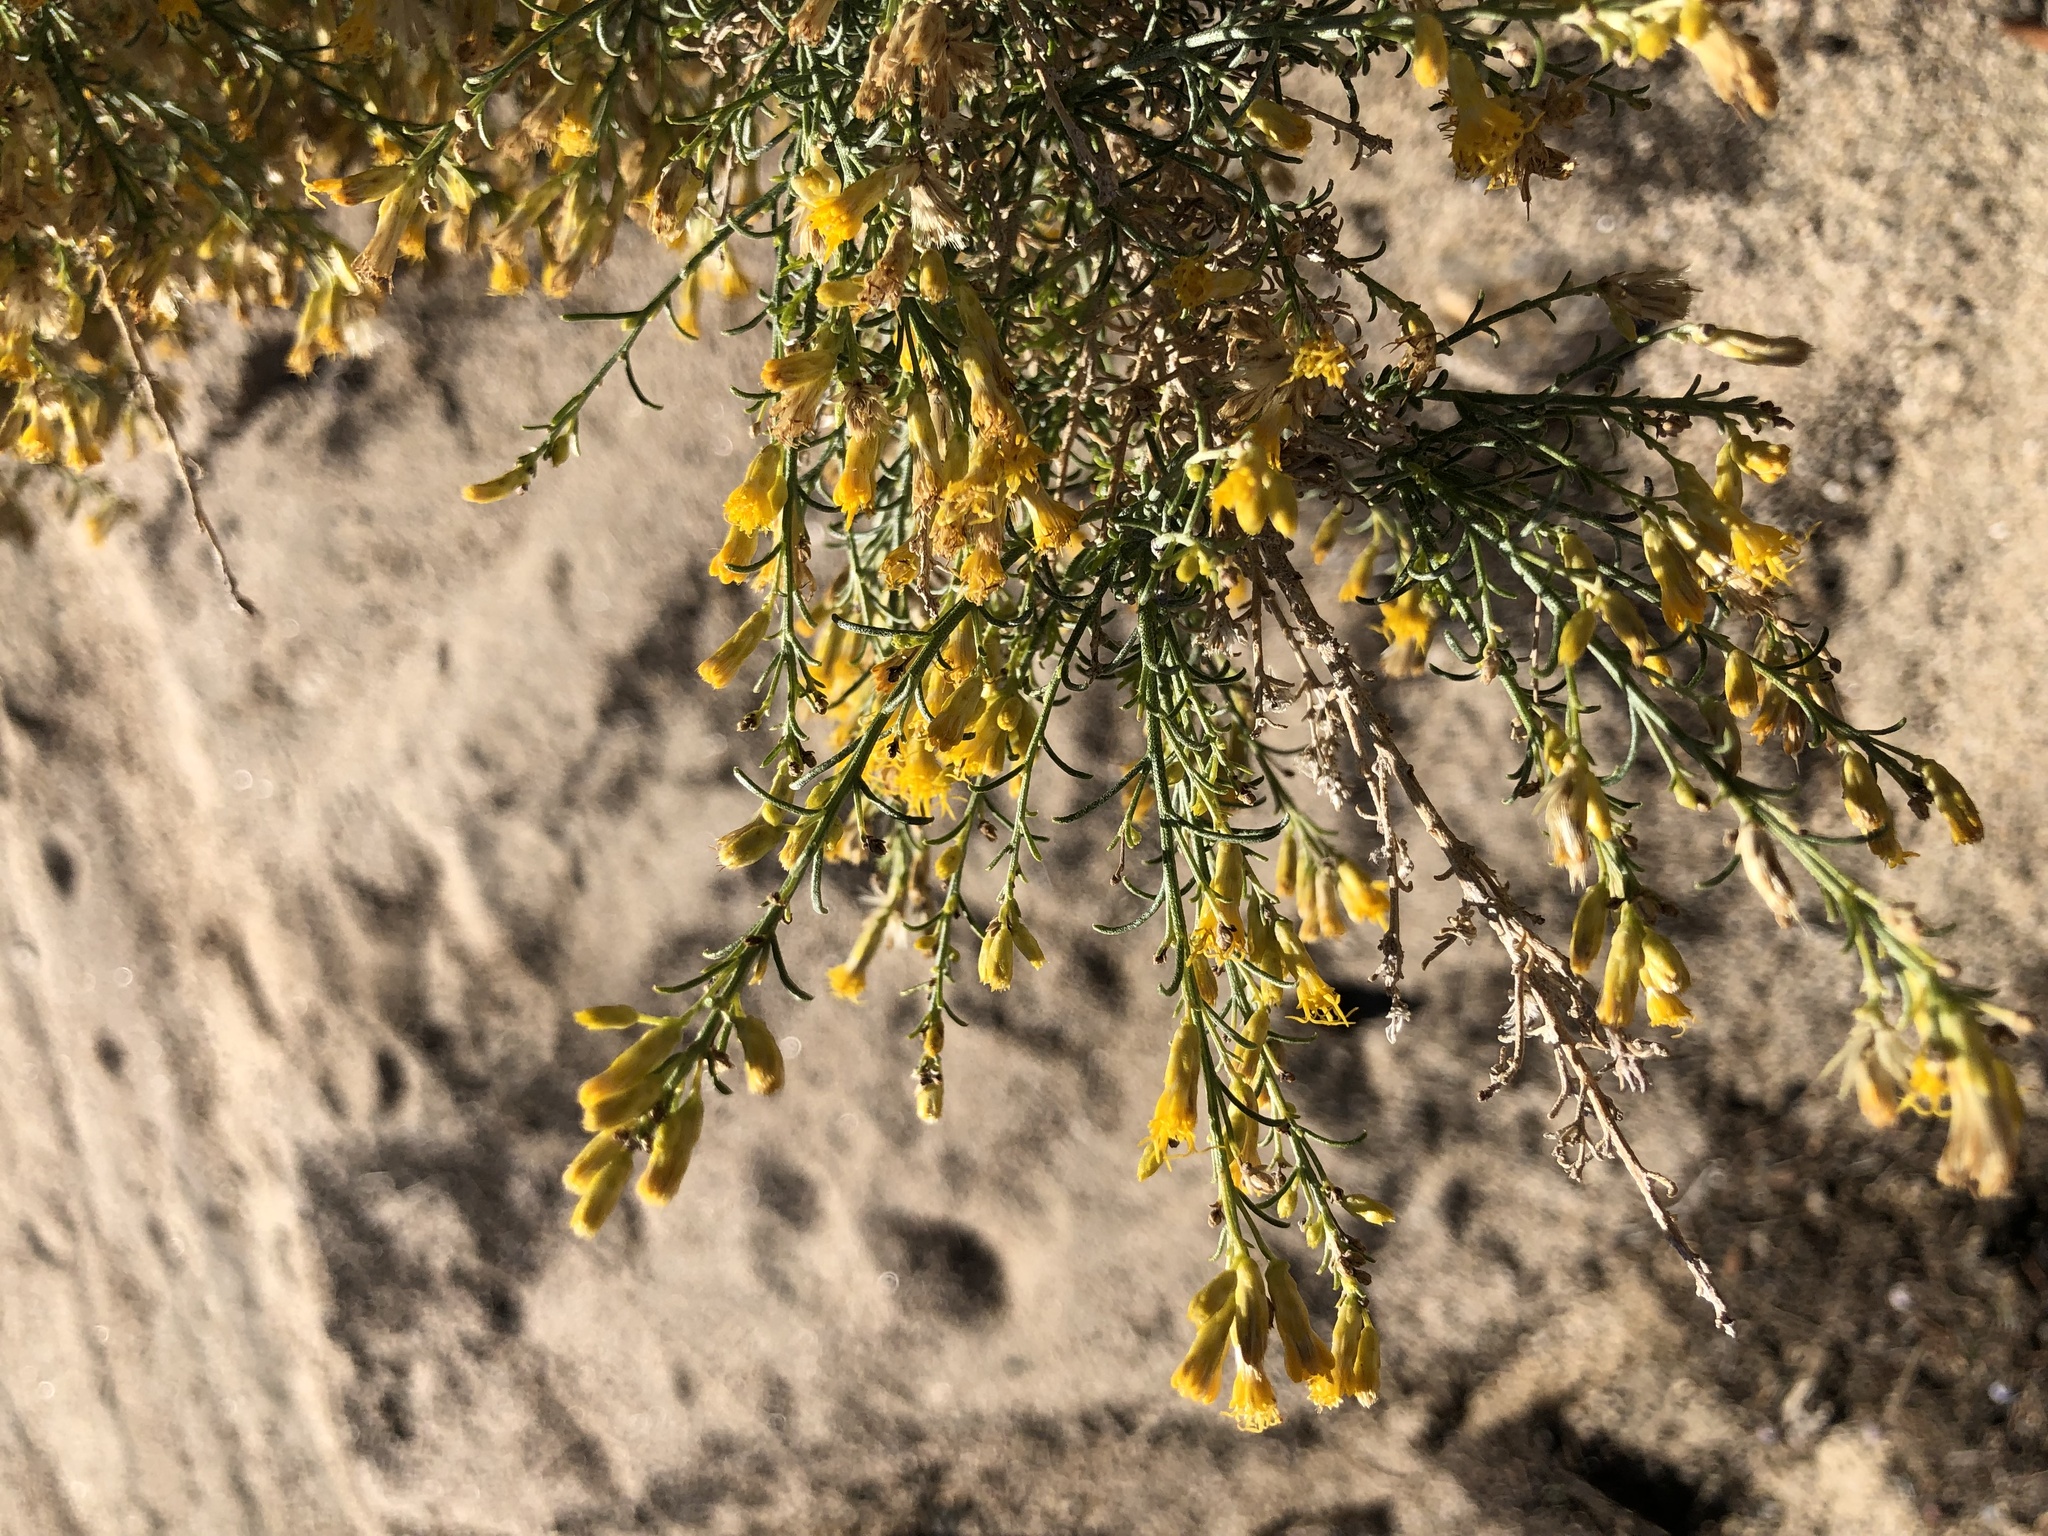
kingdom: Plantae
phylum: Tracheophyta
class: Magnoliopsida
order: Asterales
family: Asteraceae
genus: Ericameria
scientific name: Ericameria paniculata
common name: Punctate rabbitbrush
